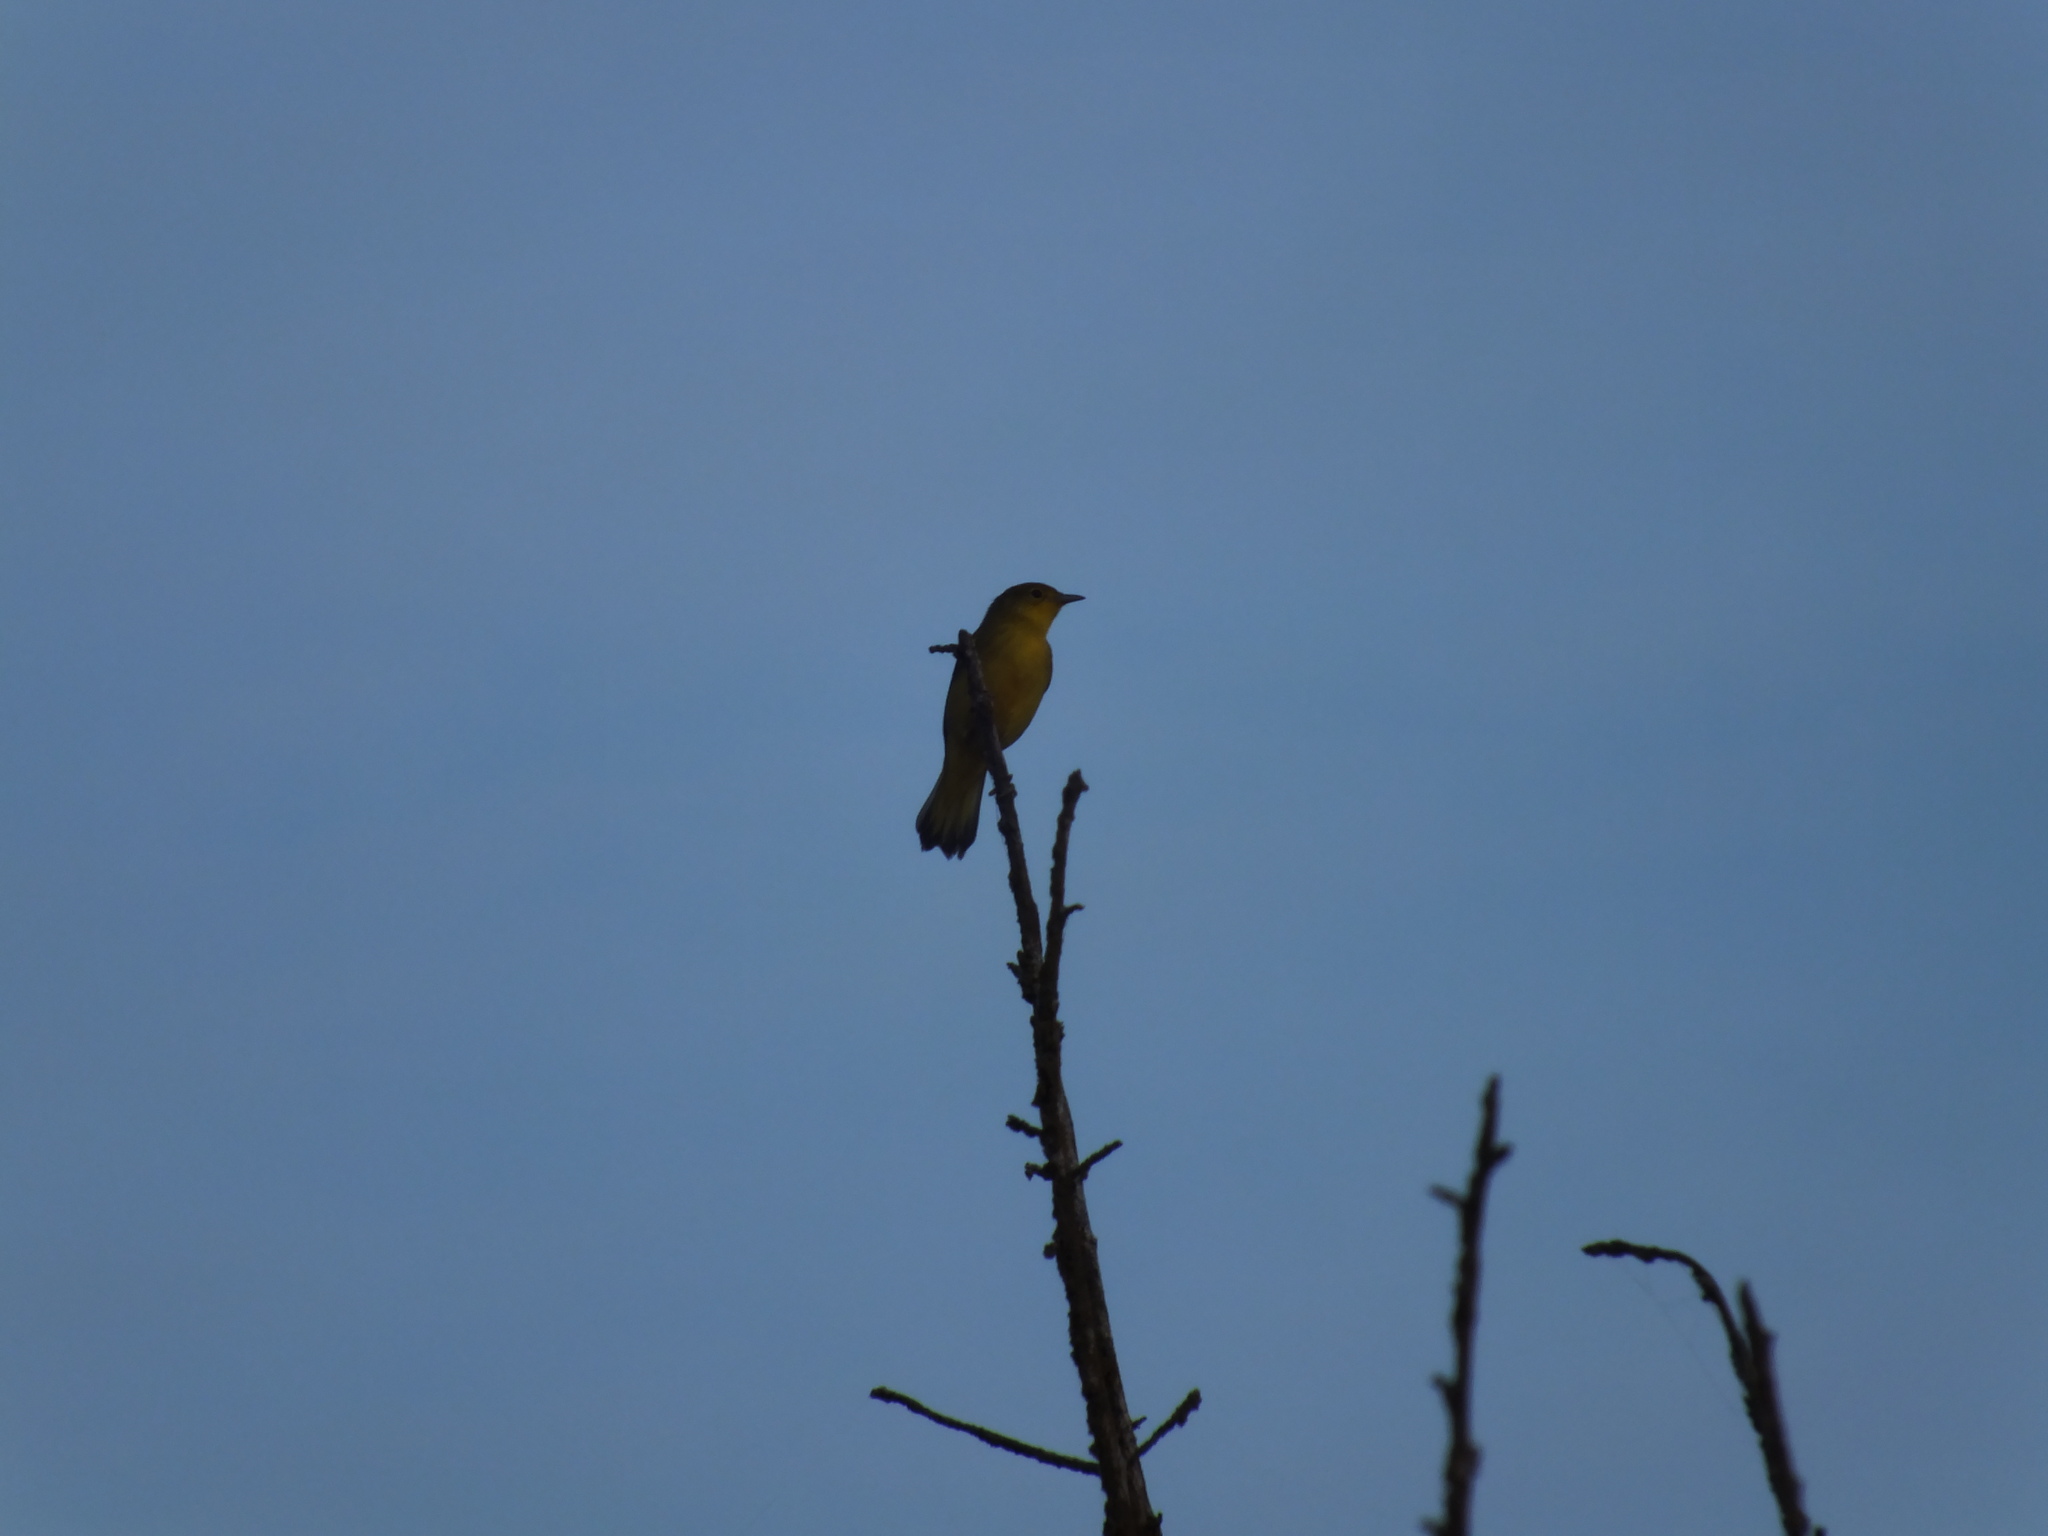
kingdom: Animalia
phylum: Chordata
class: Aves
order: Passeriformes
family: Parulidae
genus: Setophaga
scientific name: Setophaga petechia
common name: Yellow warbler
